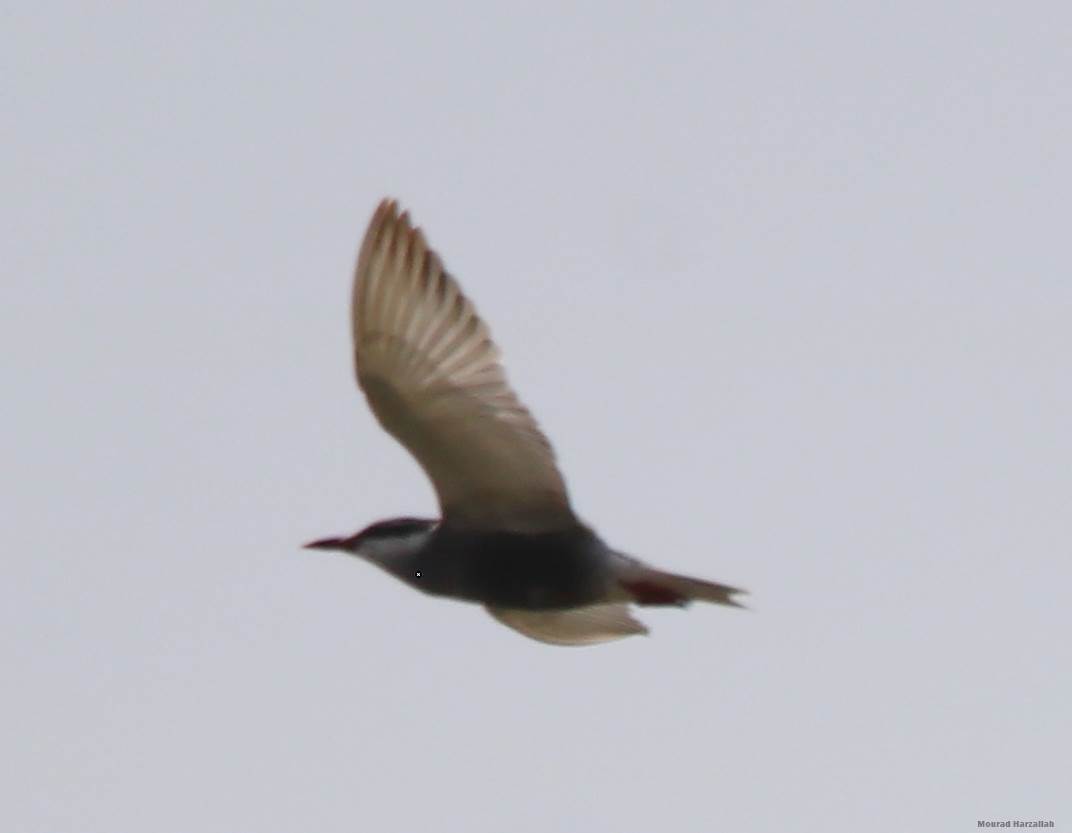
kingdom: Animalia
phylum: Chordata
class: Aves
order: Charadriiformes
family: Laridae
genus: Chlidonias
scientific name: Chlidonias hybrida
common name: Whiskered tern
